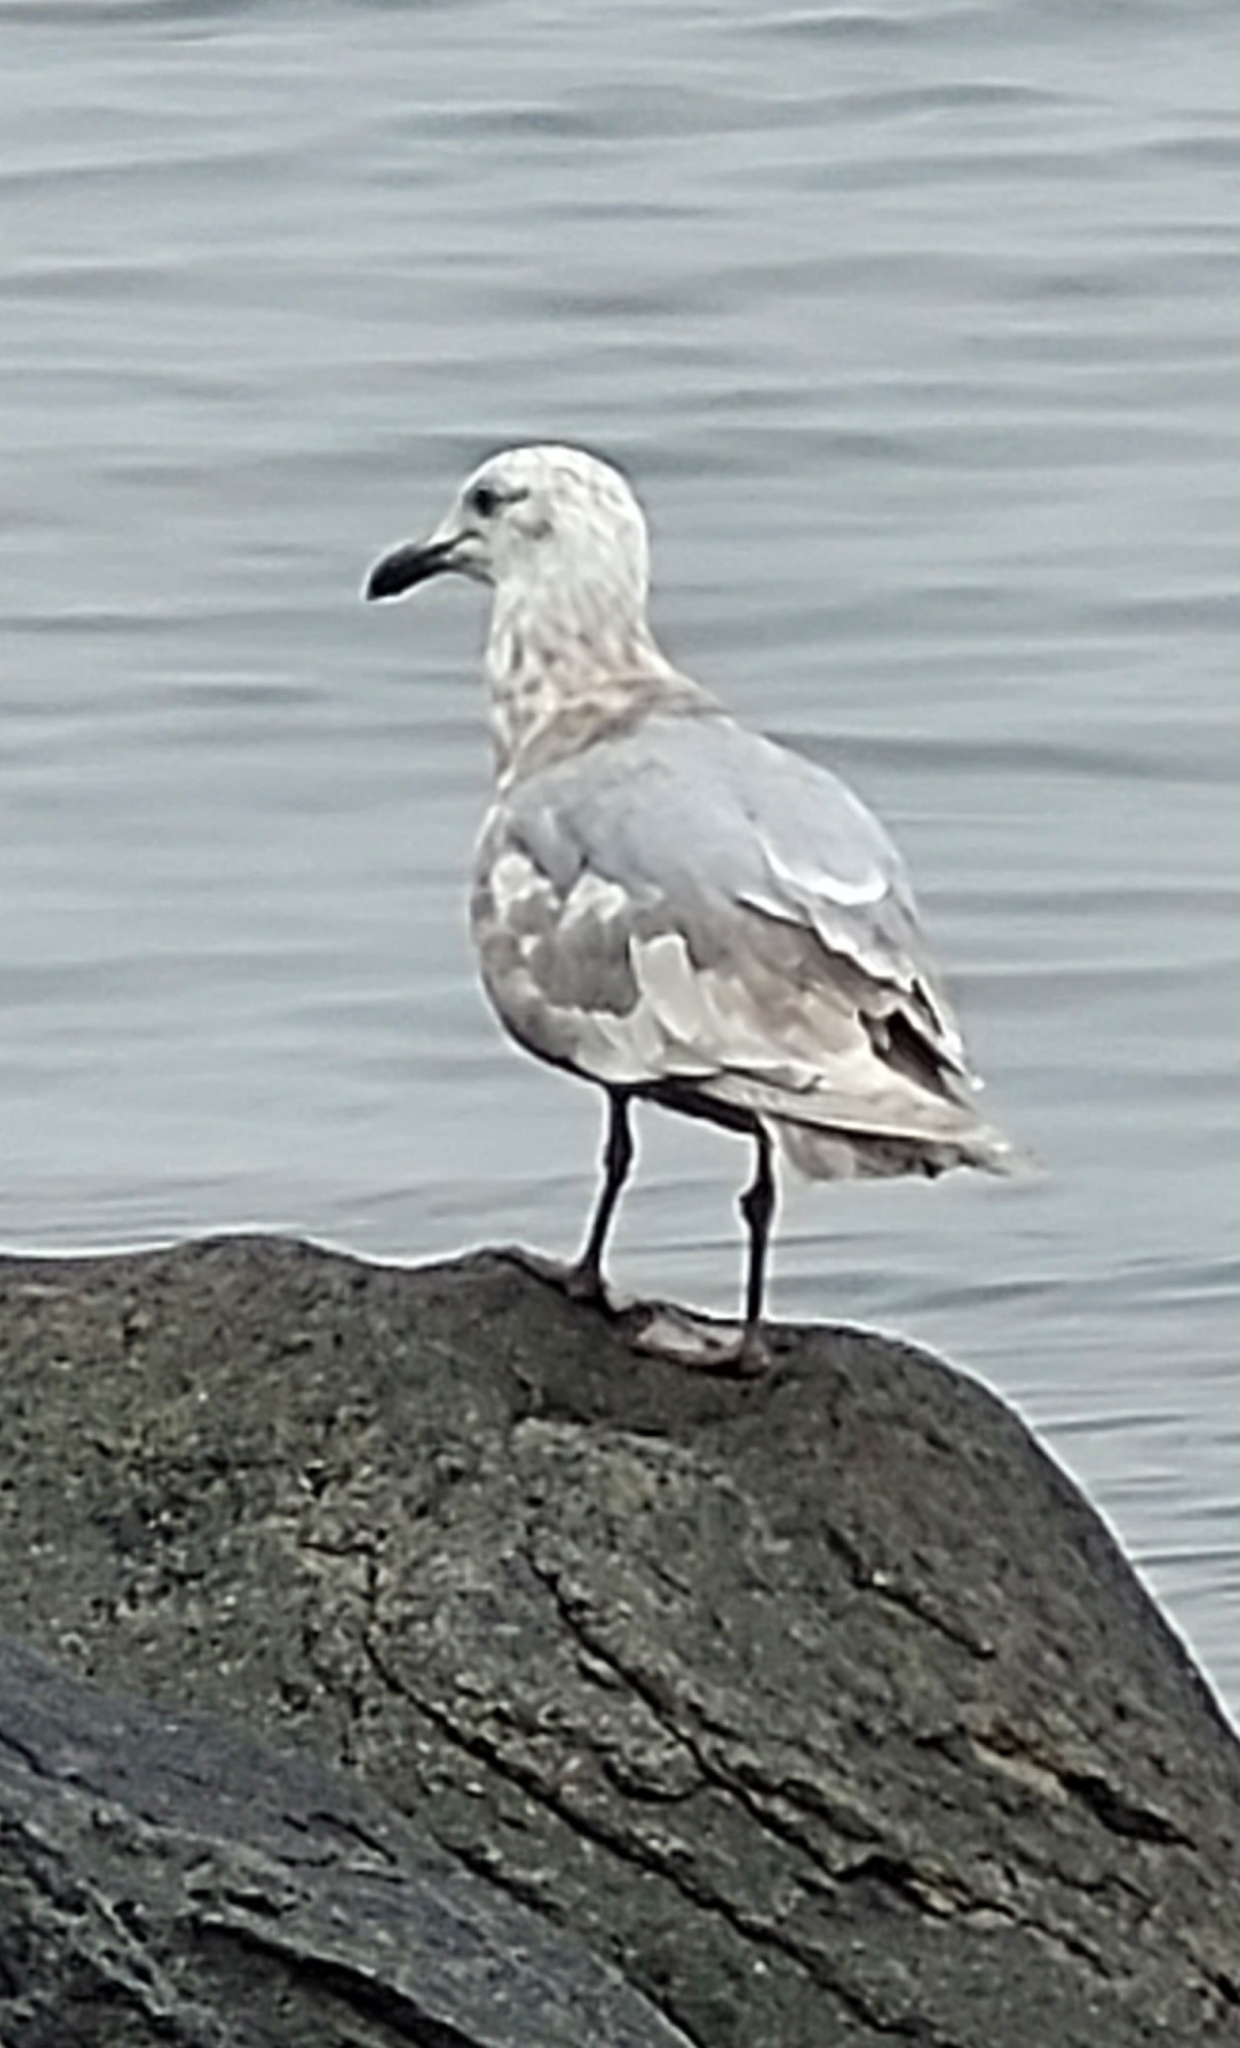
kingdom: Animalia
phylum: Chordata
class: Aves
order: Charadriiformes
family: Laridae
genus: Larus
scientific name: Larus glaucescens
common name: Glaucous-winged gull
